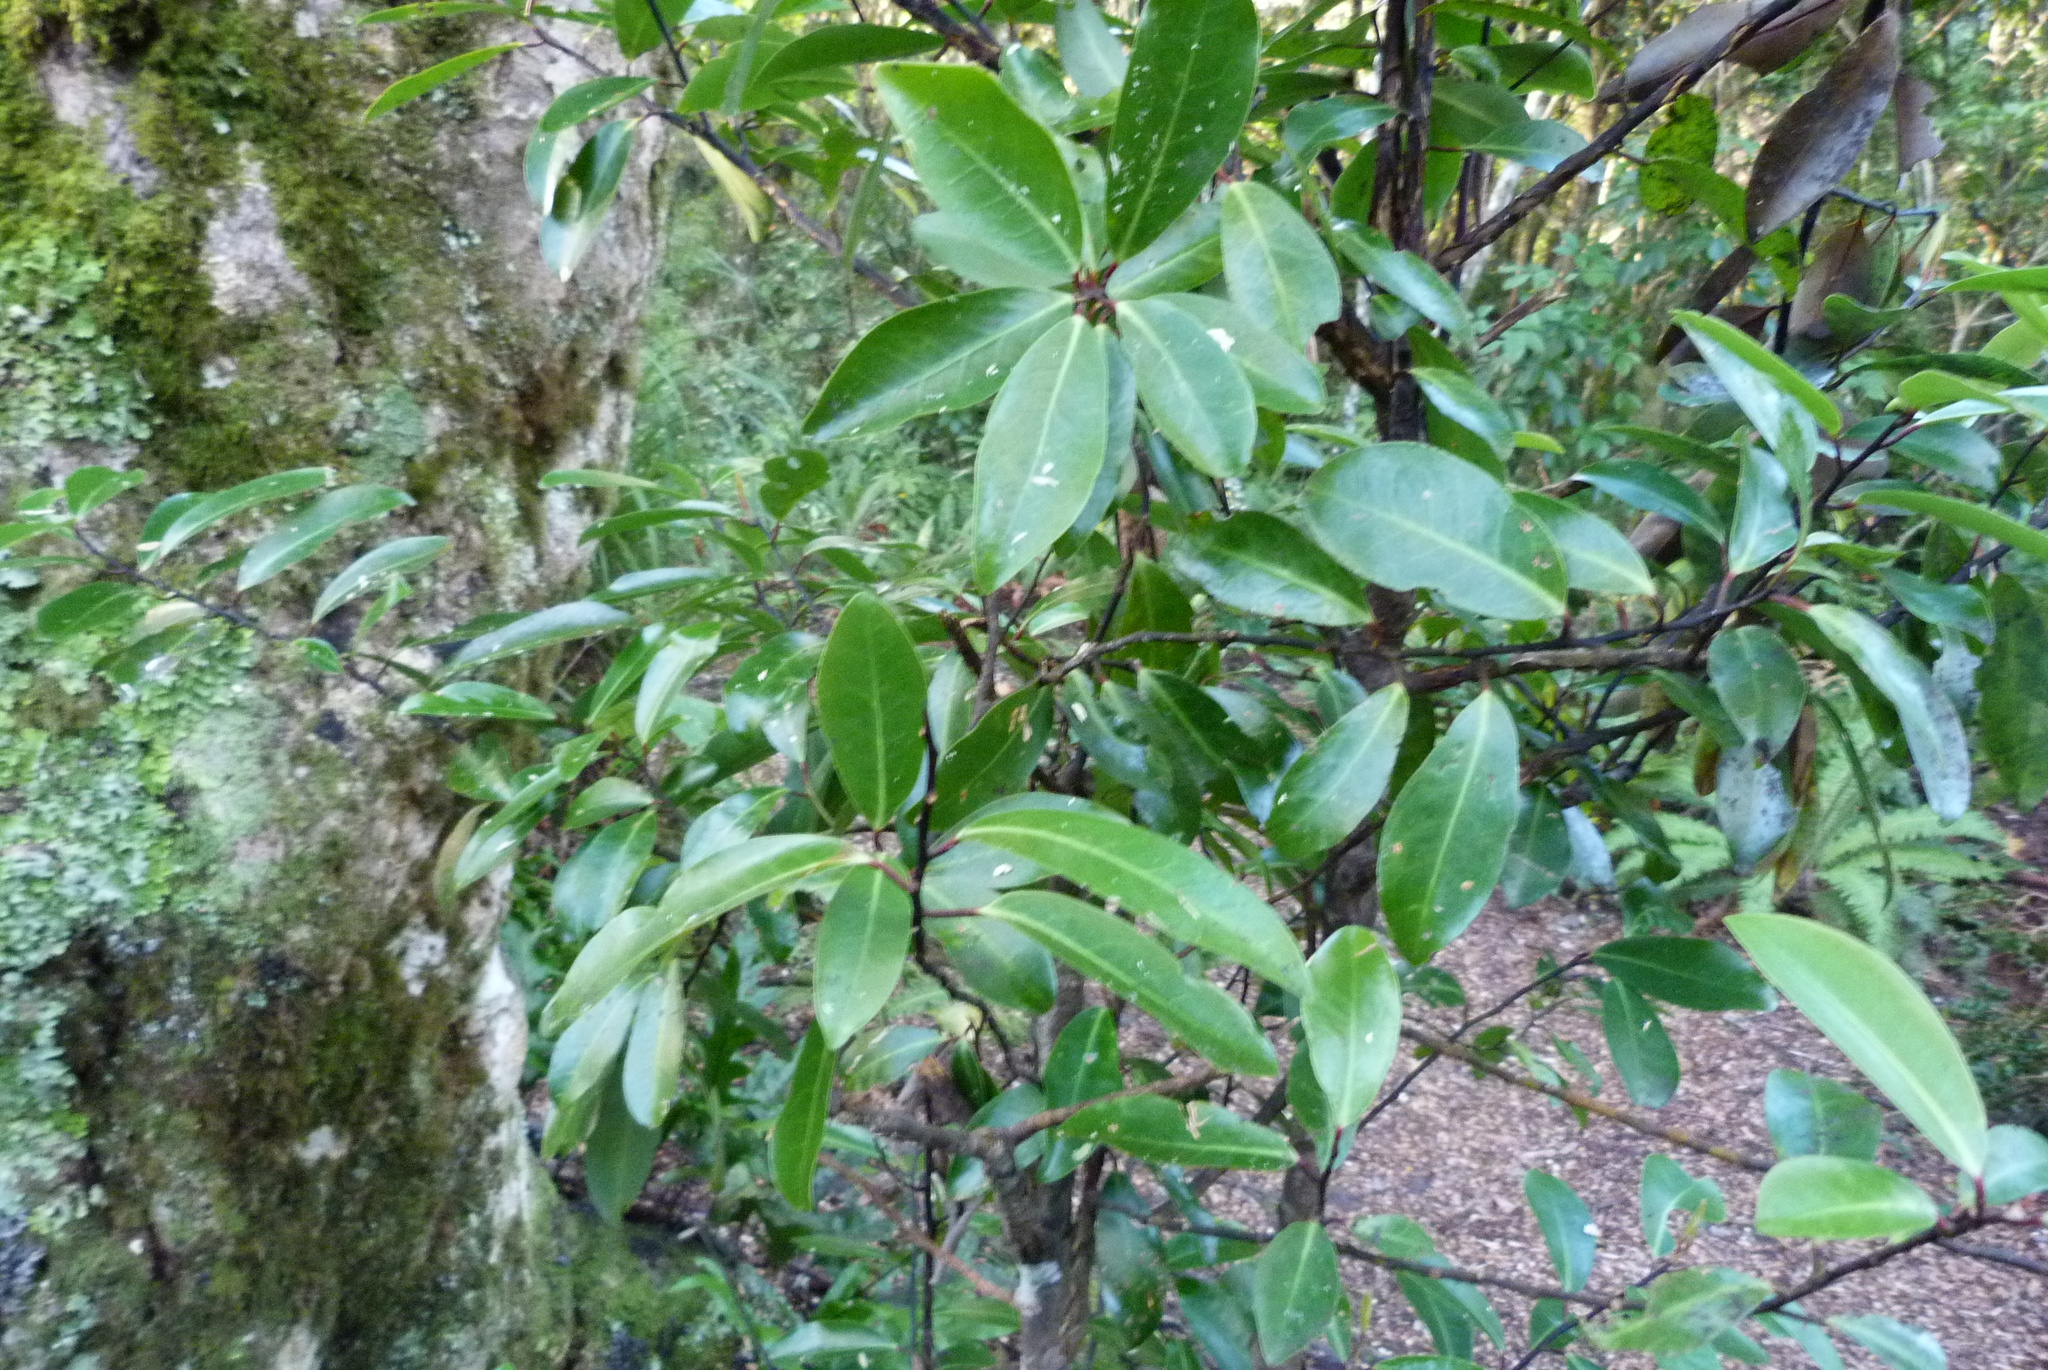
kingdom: Plantae
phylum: Tracheophyta
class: Magnoliopsida
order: Canellales
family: Winteraceae
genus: Pseudowintera
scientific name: Pseudowintera axillaris
